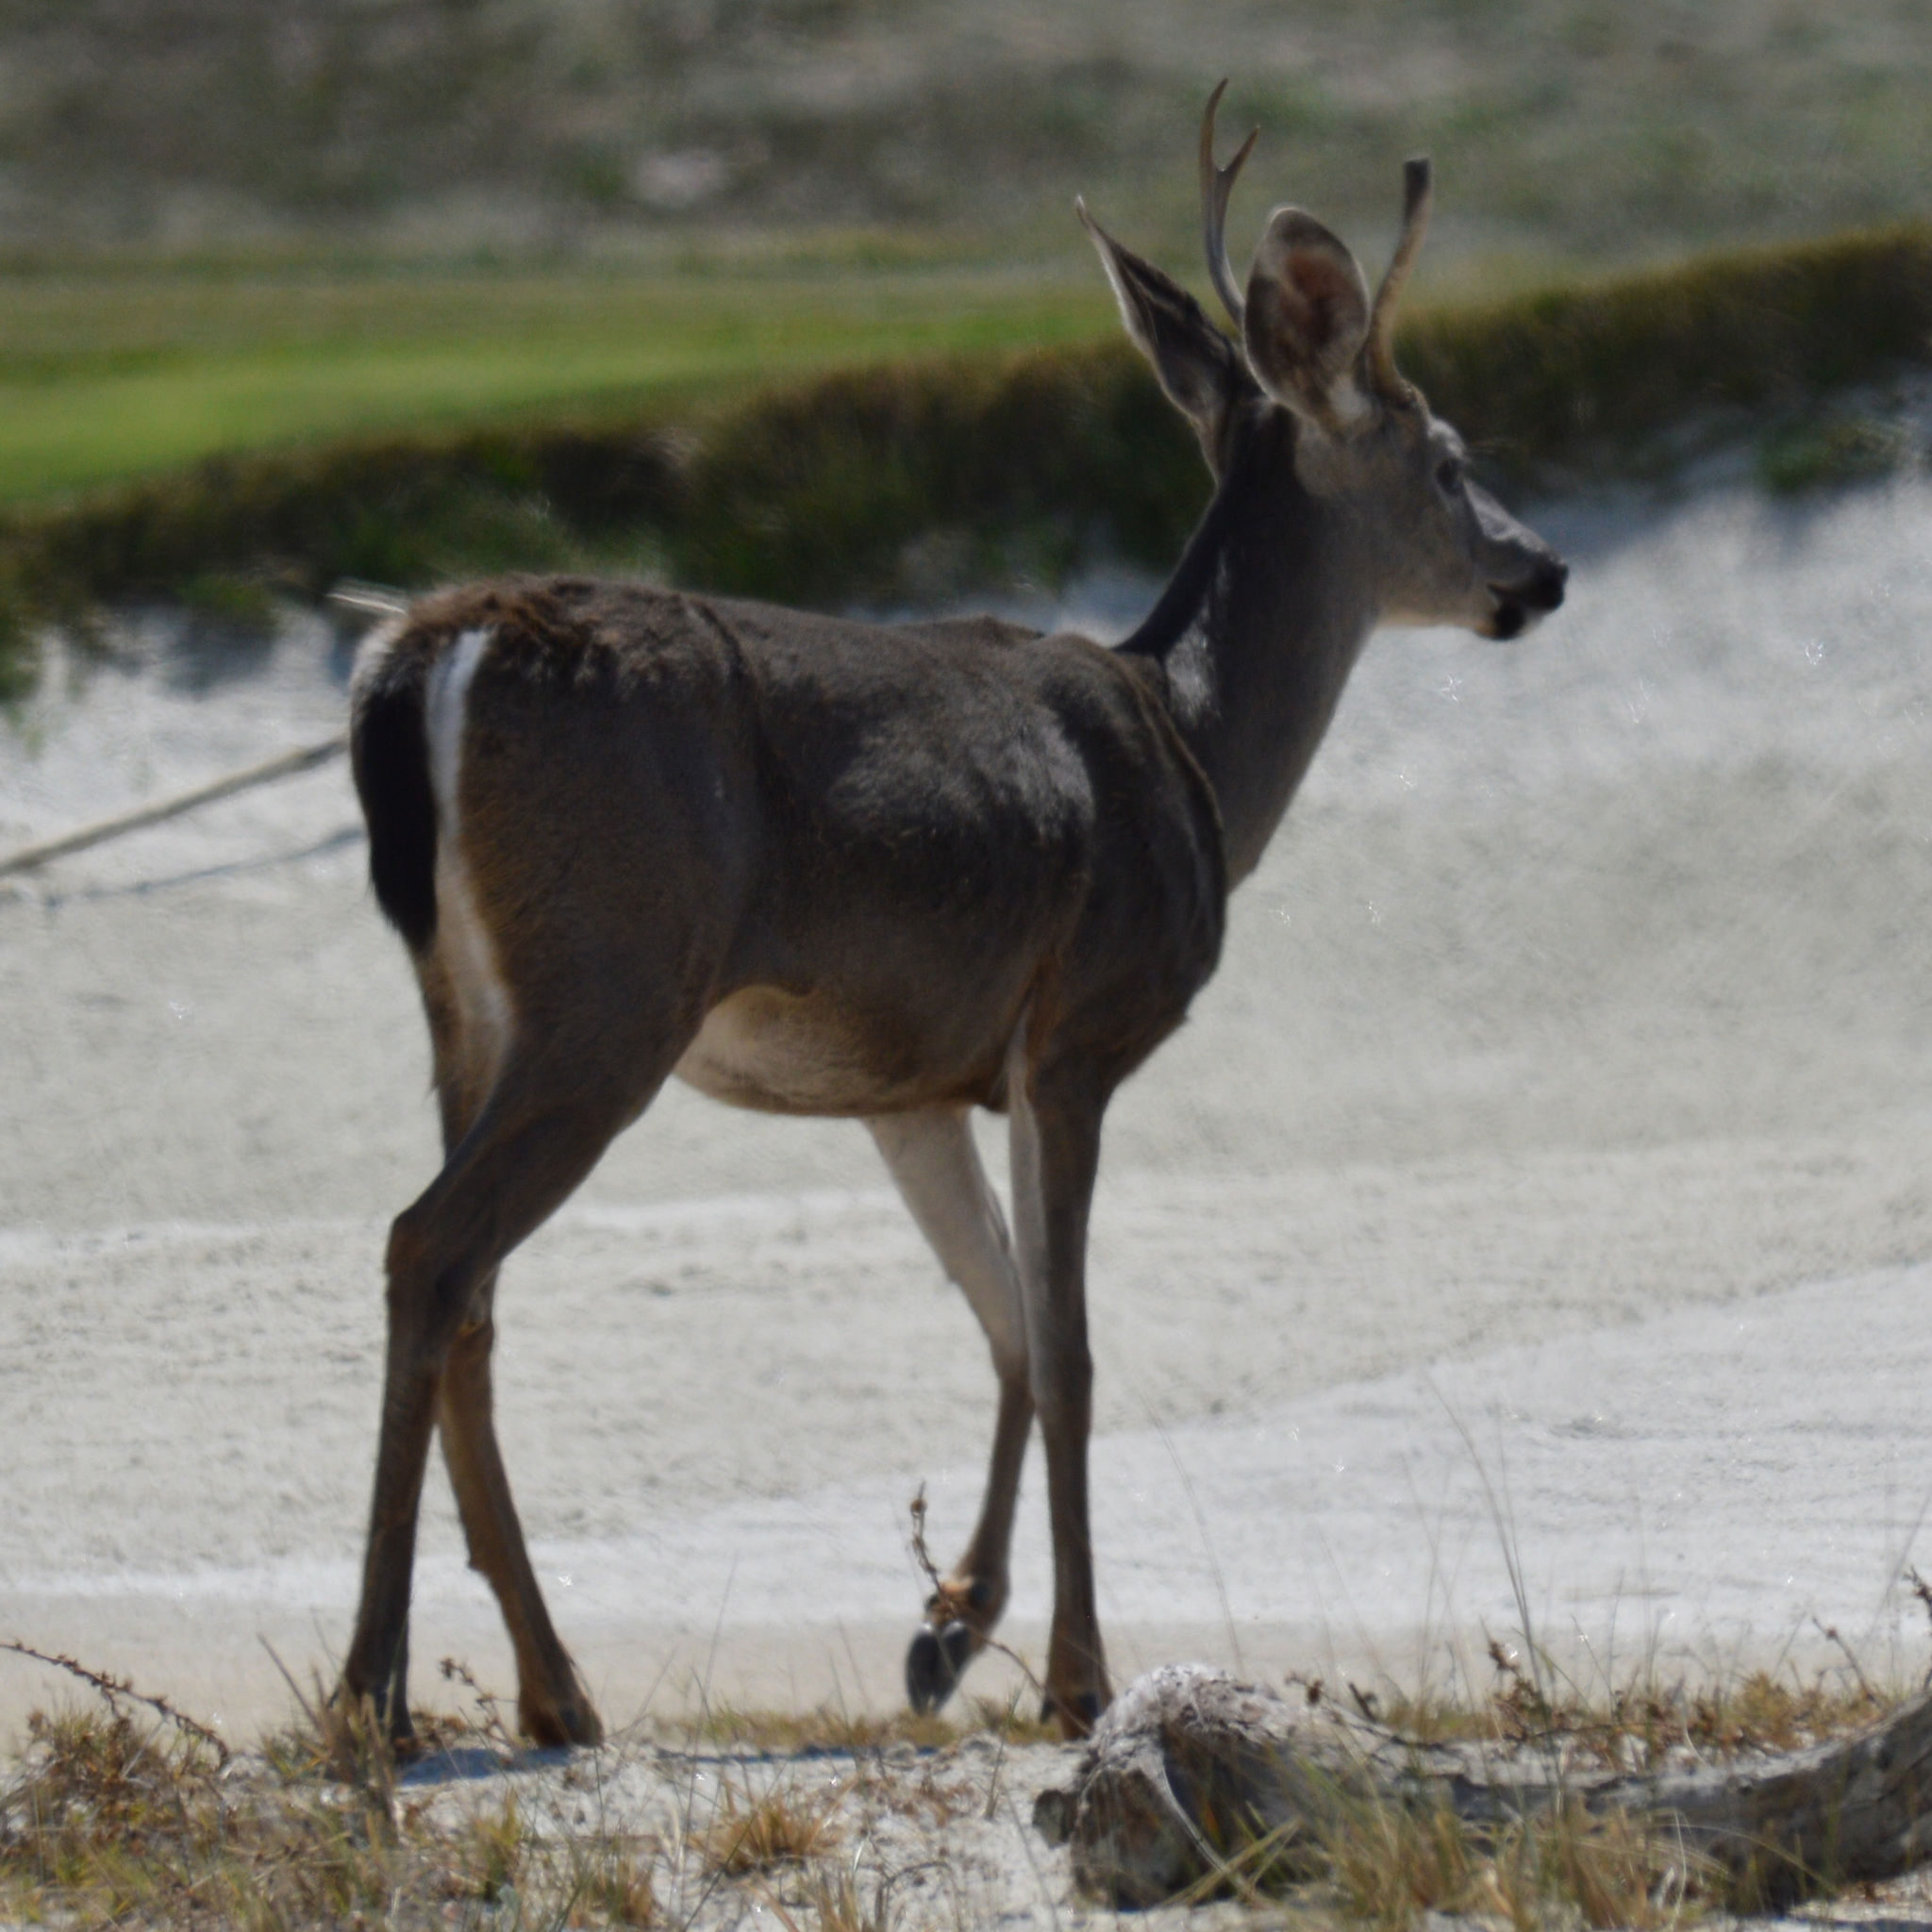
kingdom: Animalia
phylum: Chordata
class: Mammalia
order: Artiodactyla
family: Cervidae
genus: Odocoileus
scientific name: Odocoileus hemionus
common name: Mule deer
